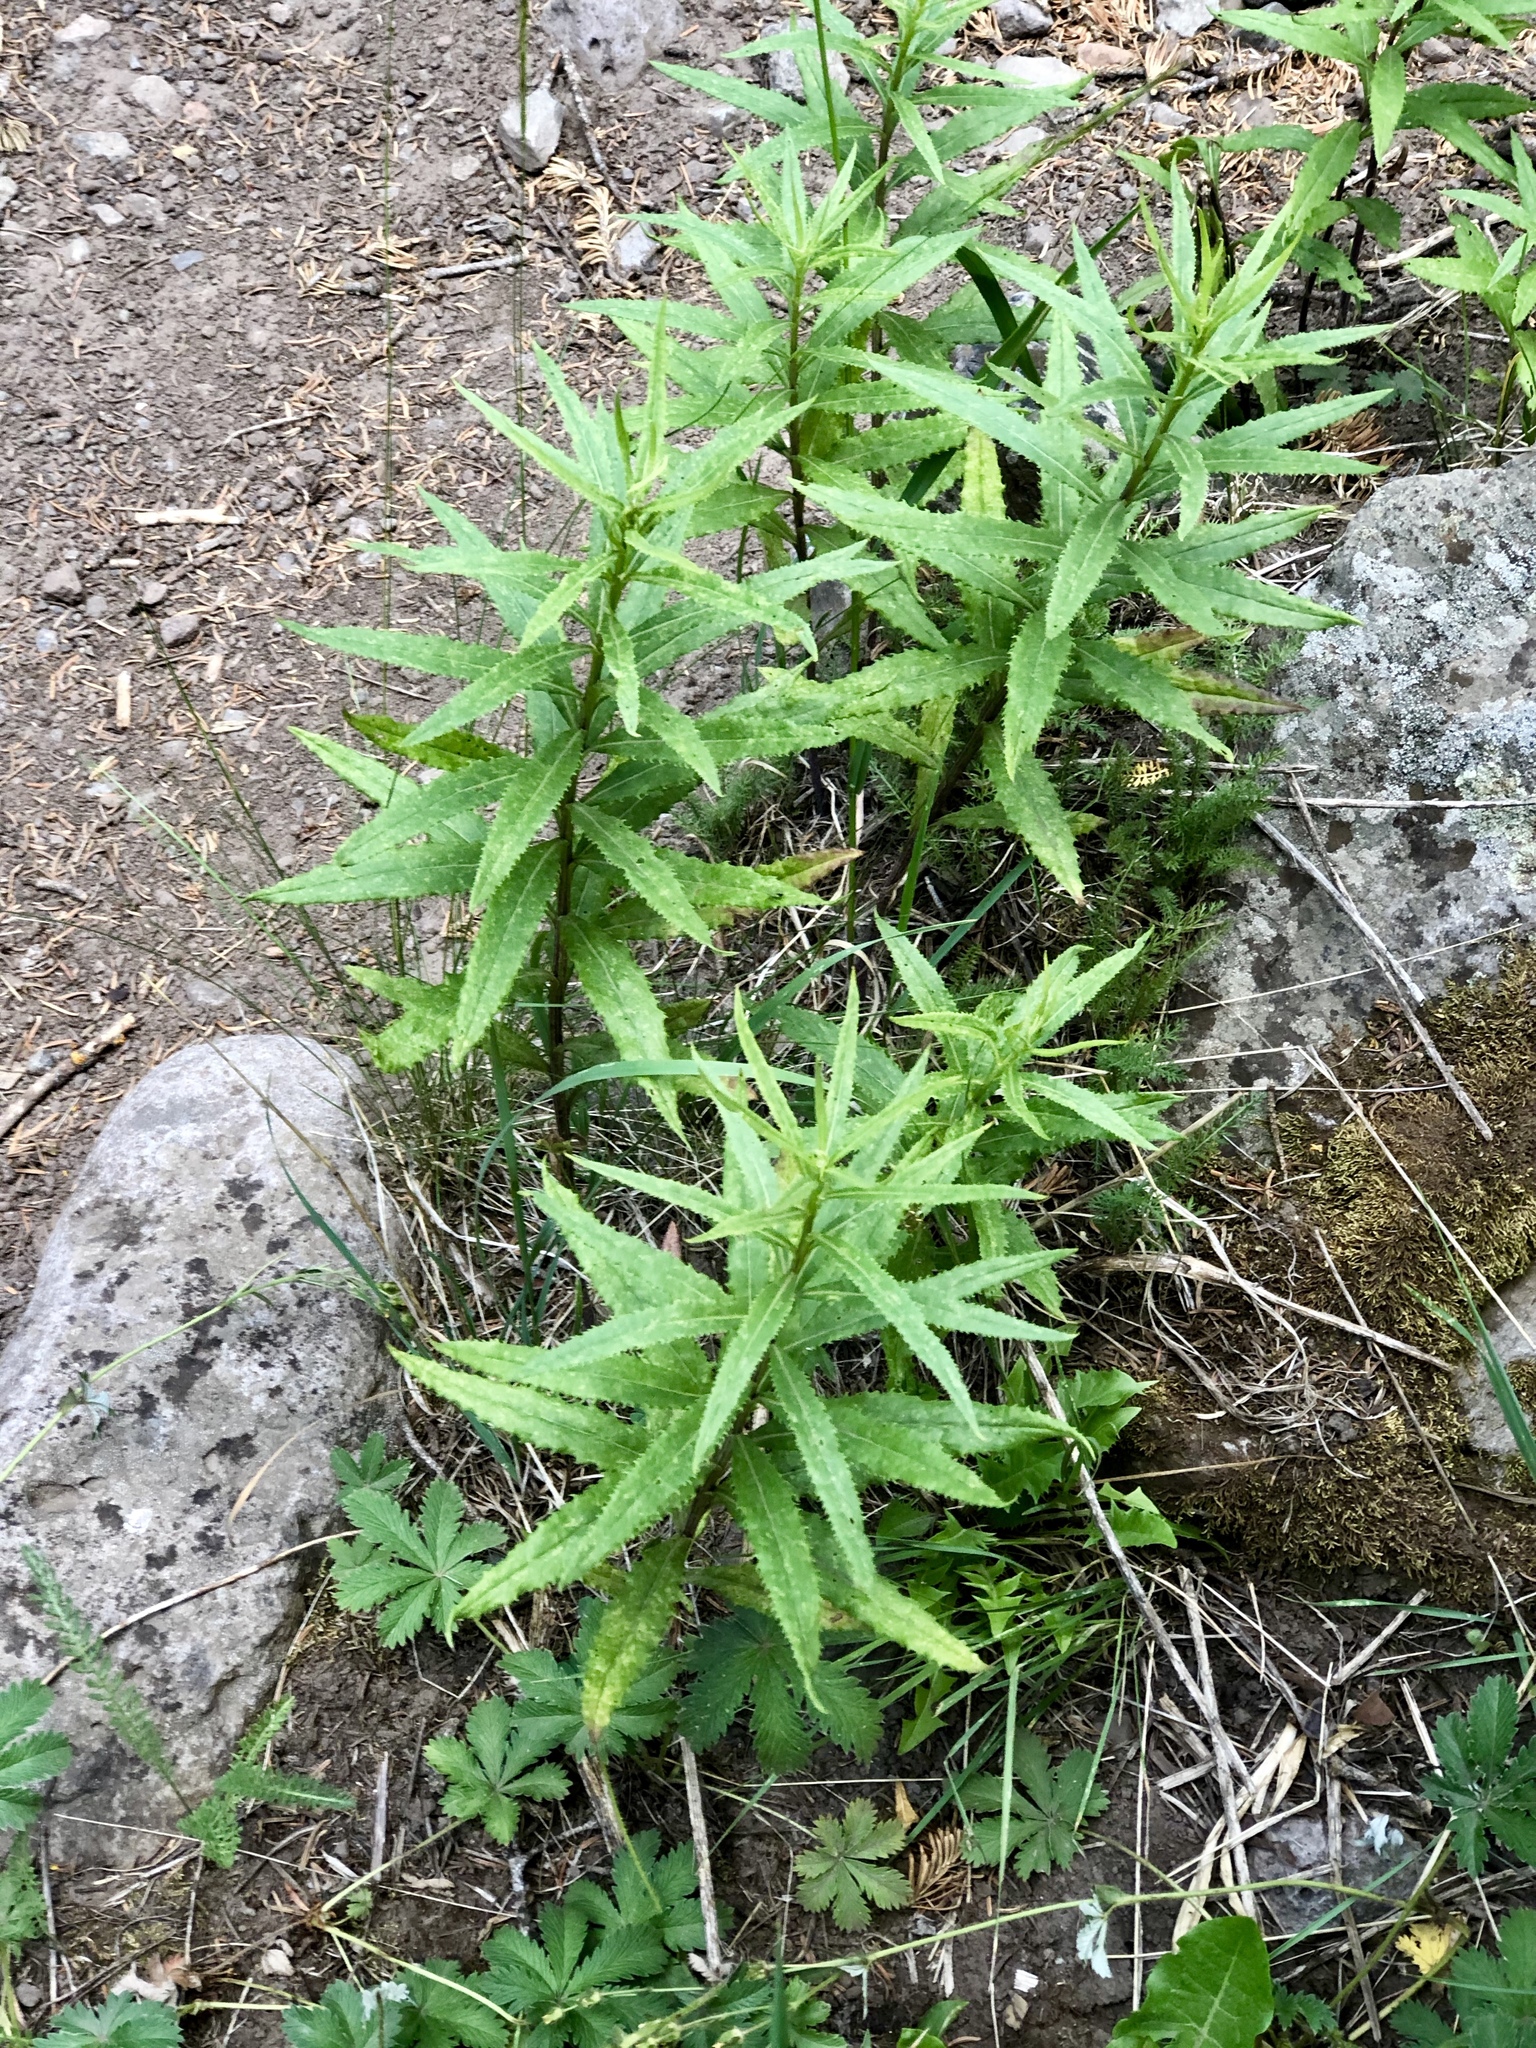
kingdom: Plantae
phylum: Tracheophyta
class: Magnoliopsida
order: Asterales
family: Asteraceae
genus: Senecio
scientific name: Senecio triangularis
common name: Arrowleaf butterweed
